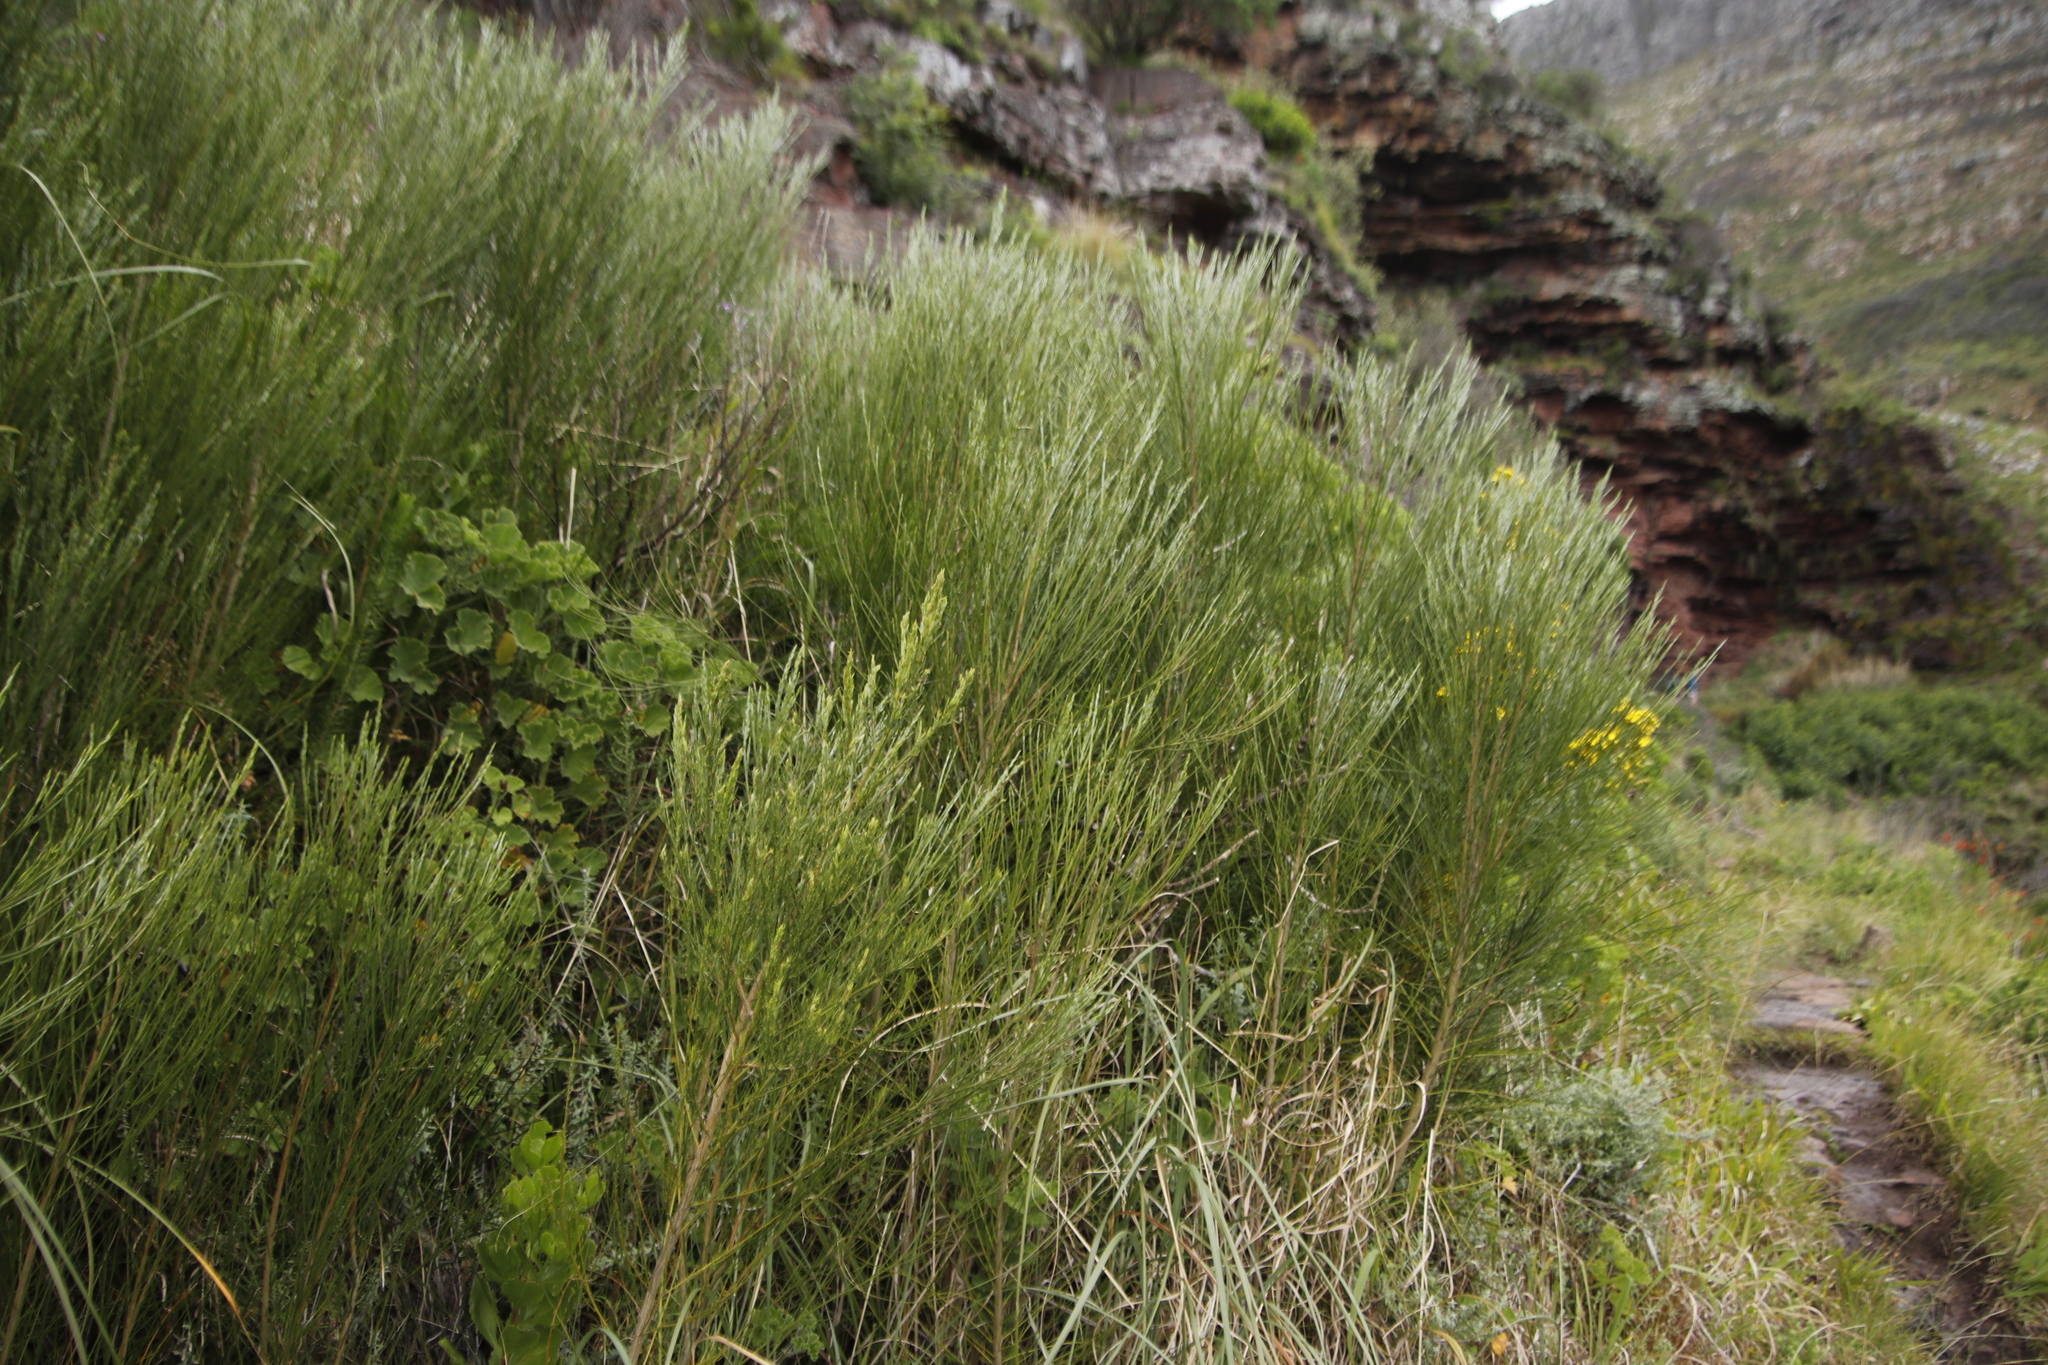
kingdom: Plantae
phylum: Tracheophyta
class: Magnoliopsida
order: Fabales
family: Fabaceae
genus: Psoralea
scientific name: Psoralea aphylla
